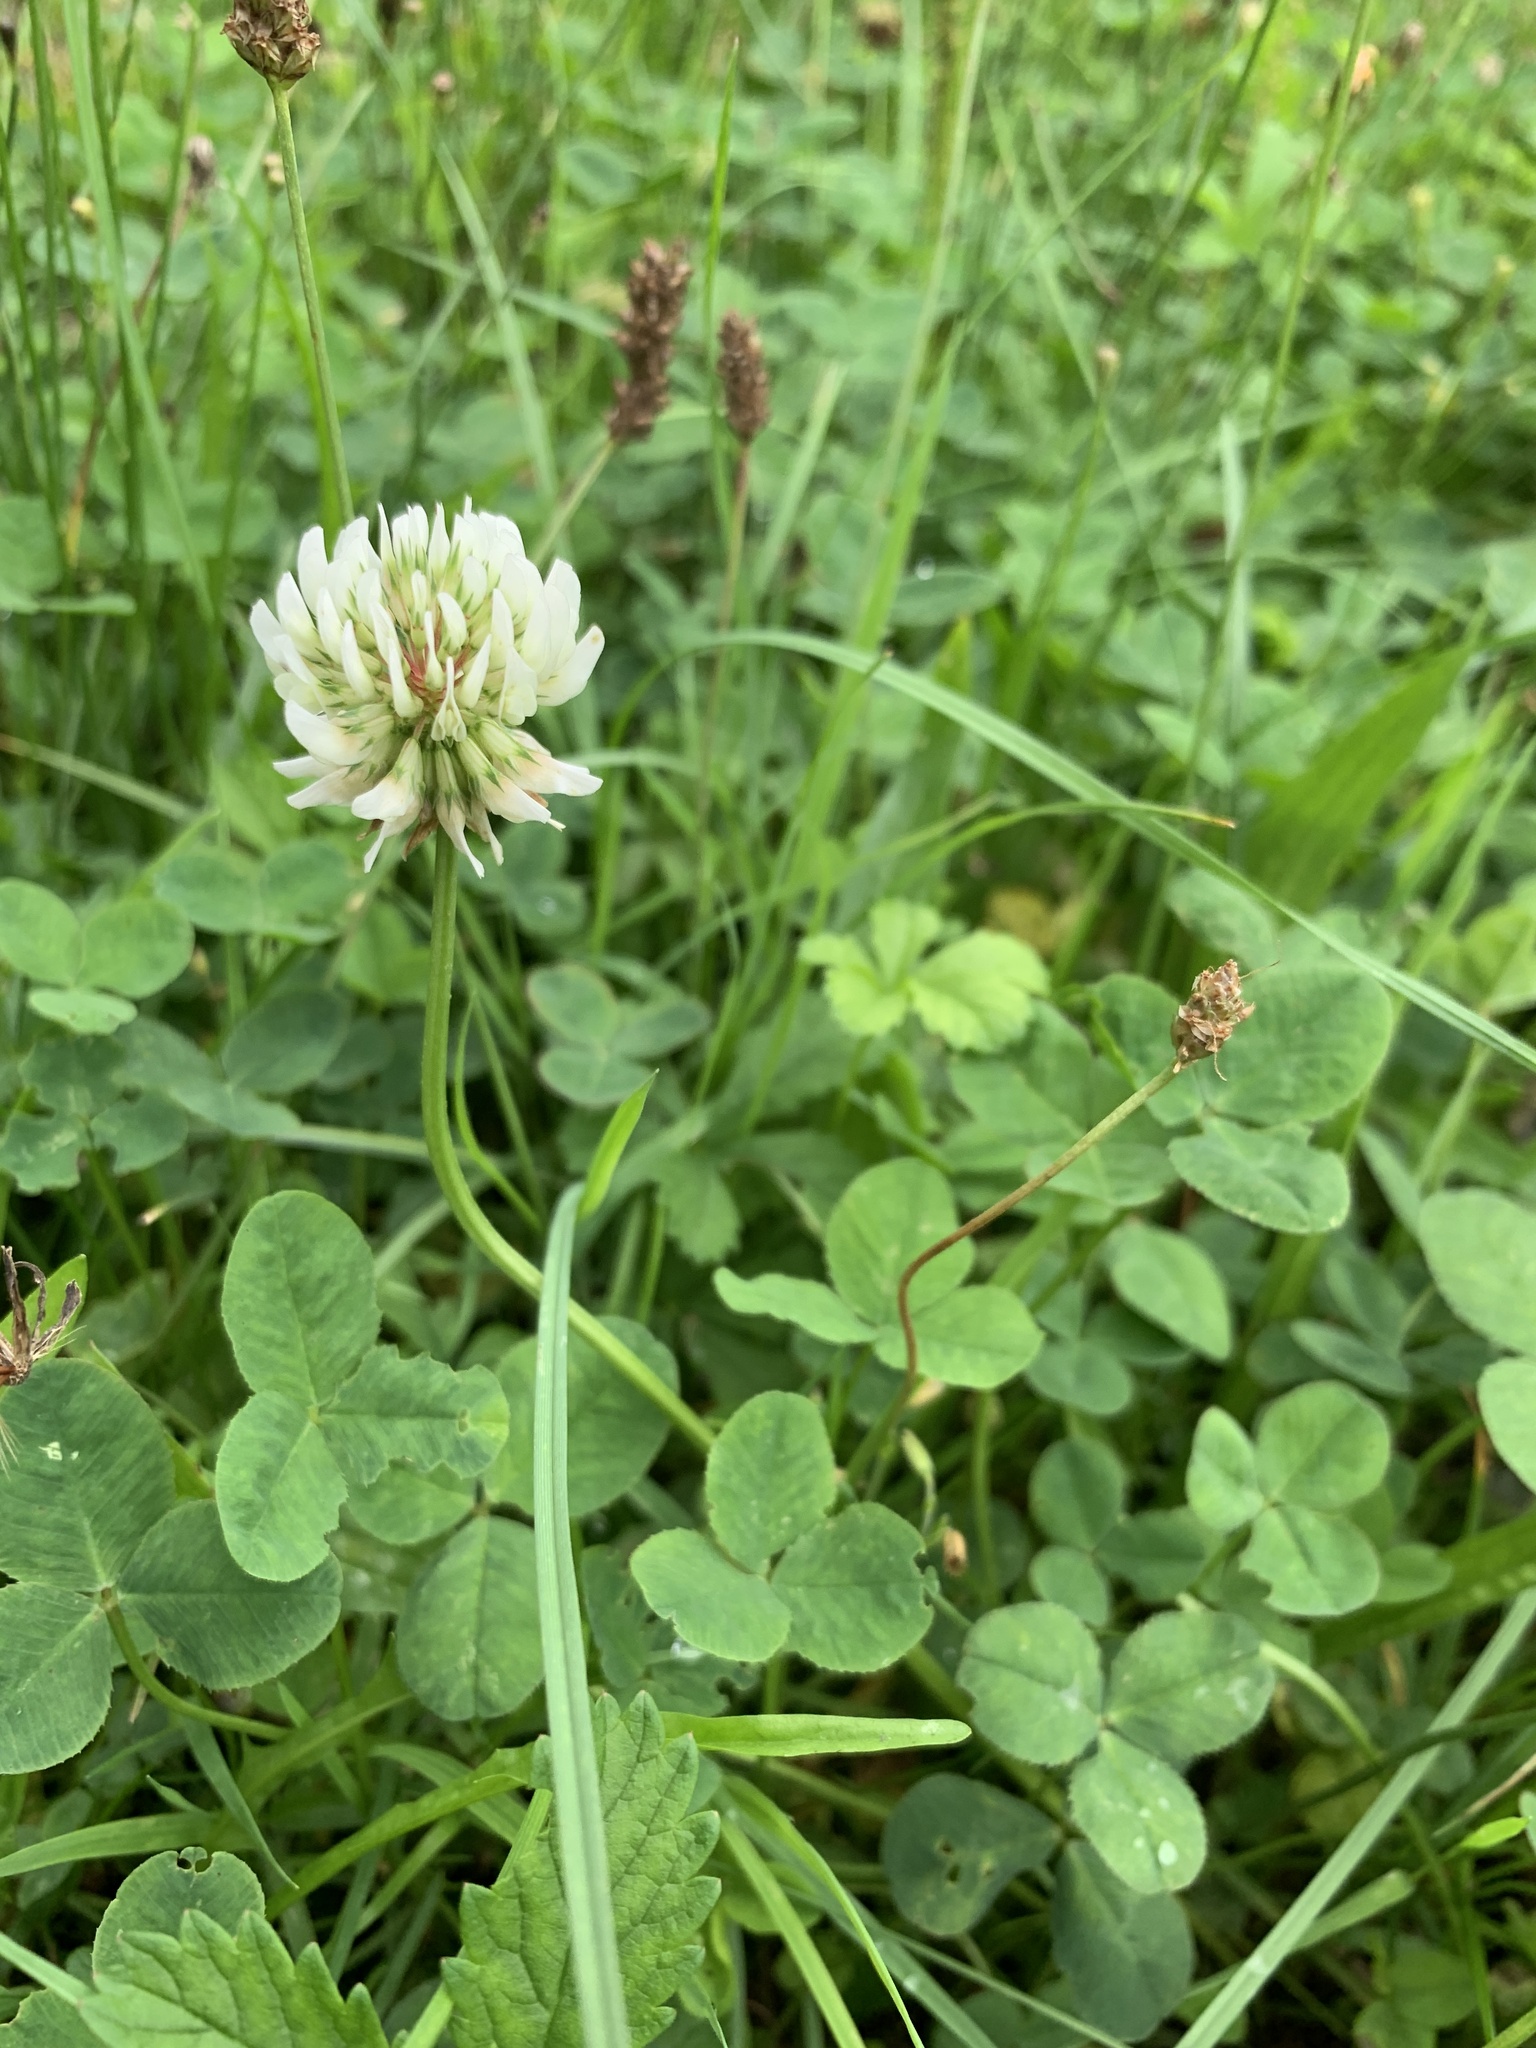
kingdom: Plantae
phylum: Tracheophyta
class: Magnoliopsida
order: Fabales
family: Fabaceae
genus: Trifolium
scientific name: Trifolium repens
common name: White clover
